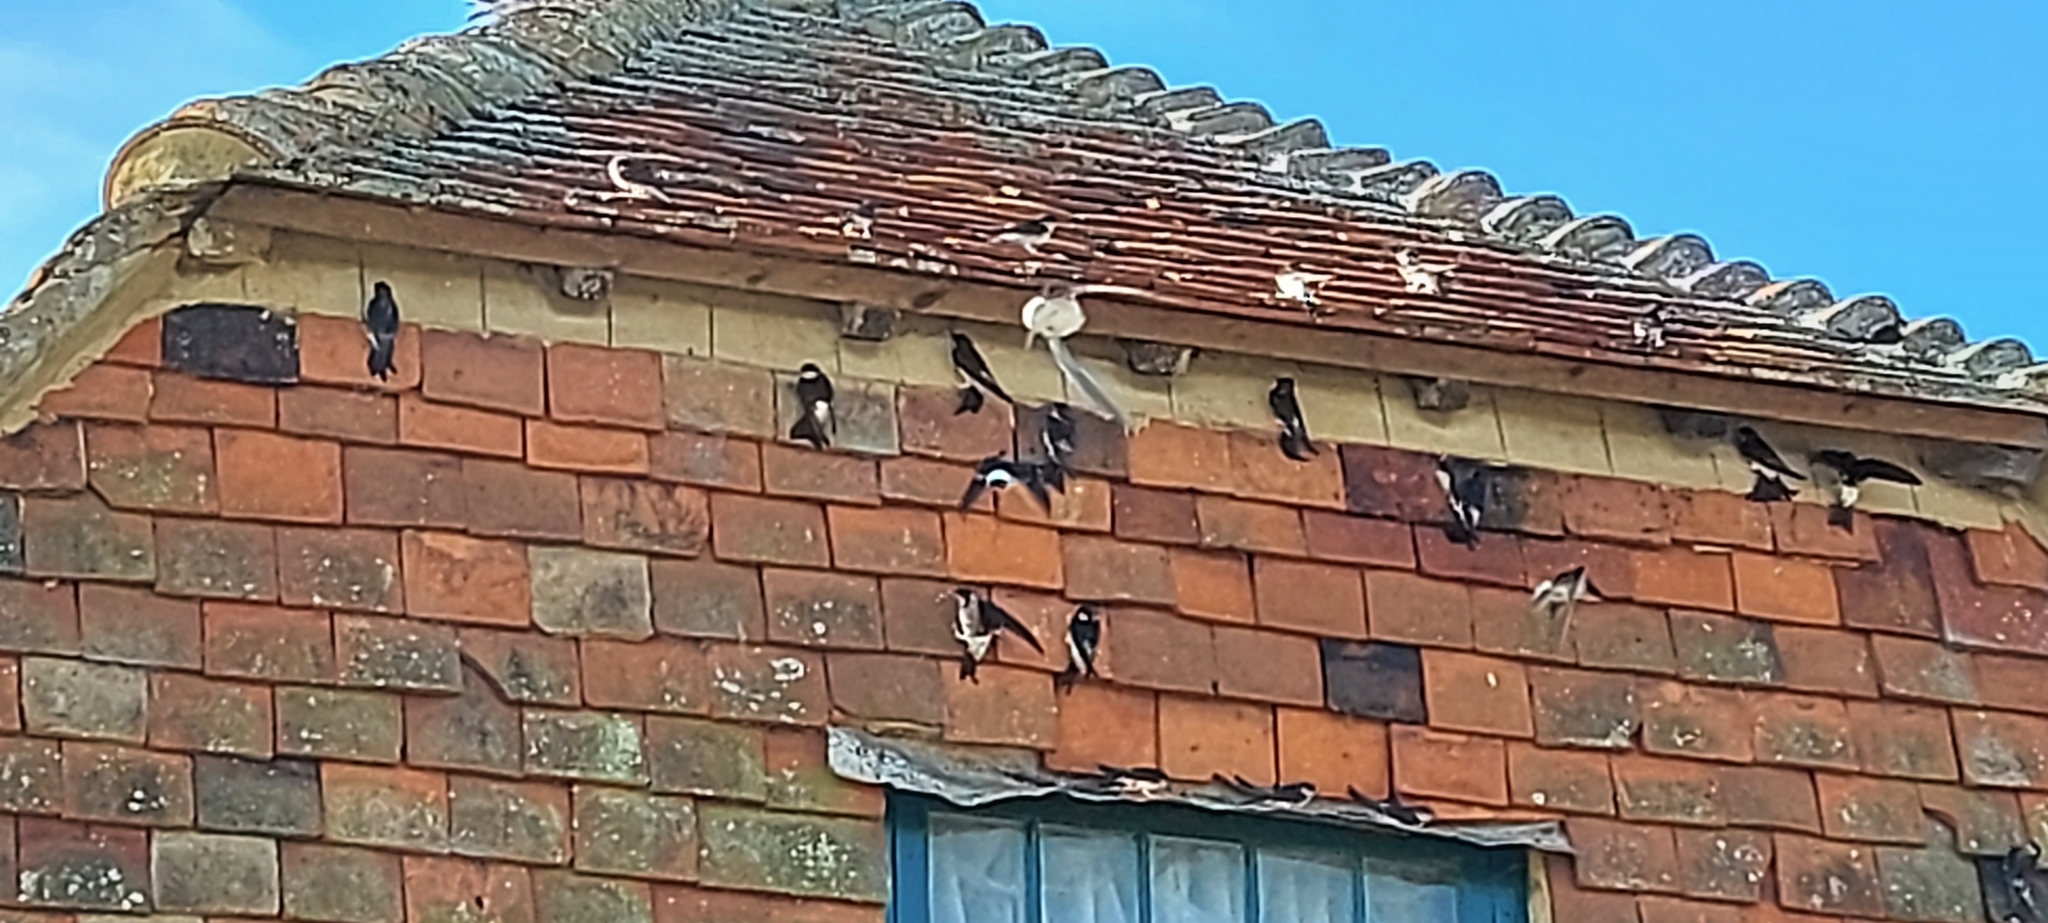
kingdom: Animalia
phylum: Chordata
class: Aves
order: Passeriformes
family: Hirundinidae
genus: Delichon
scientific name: Delichon urbicum
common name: Common house martin
